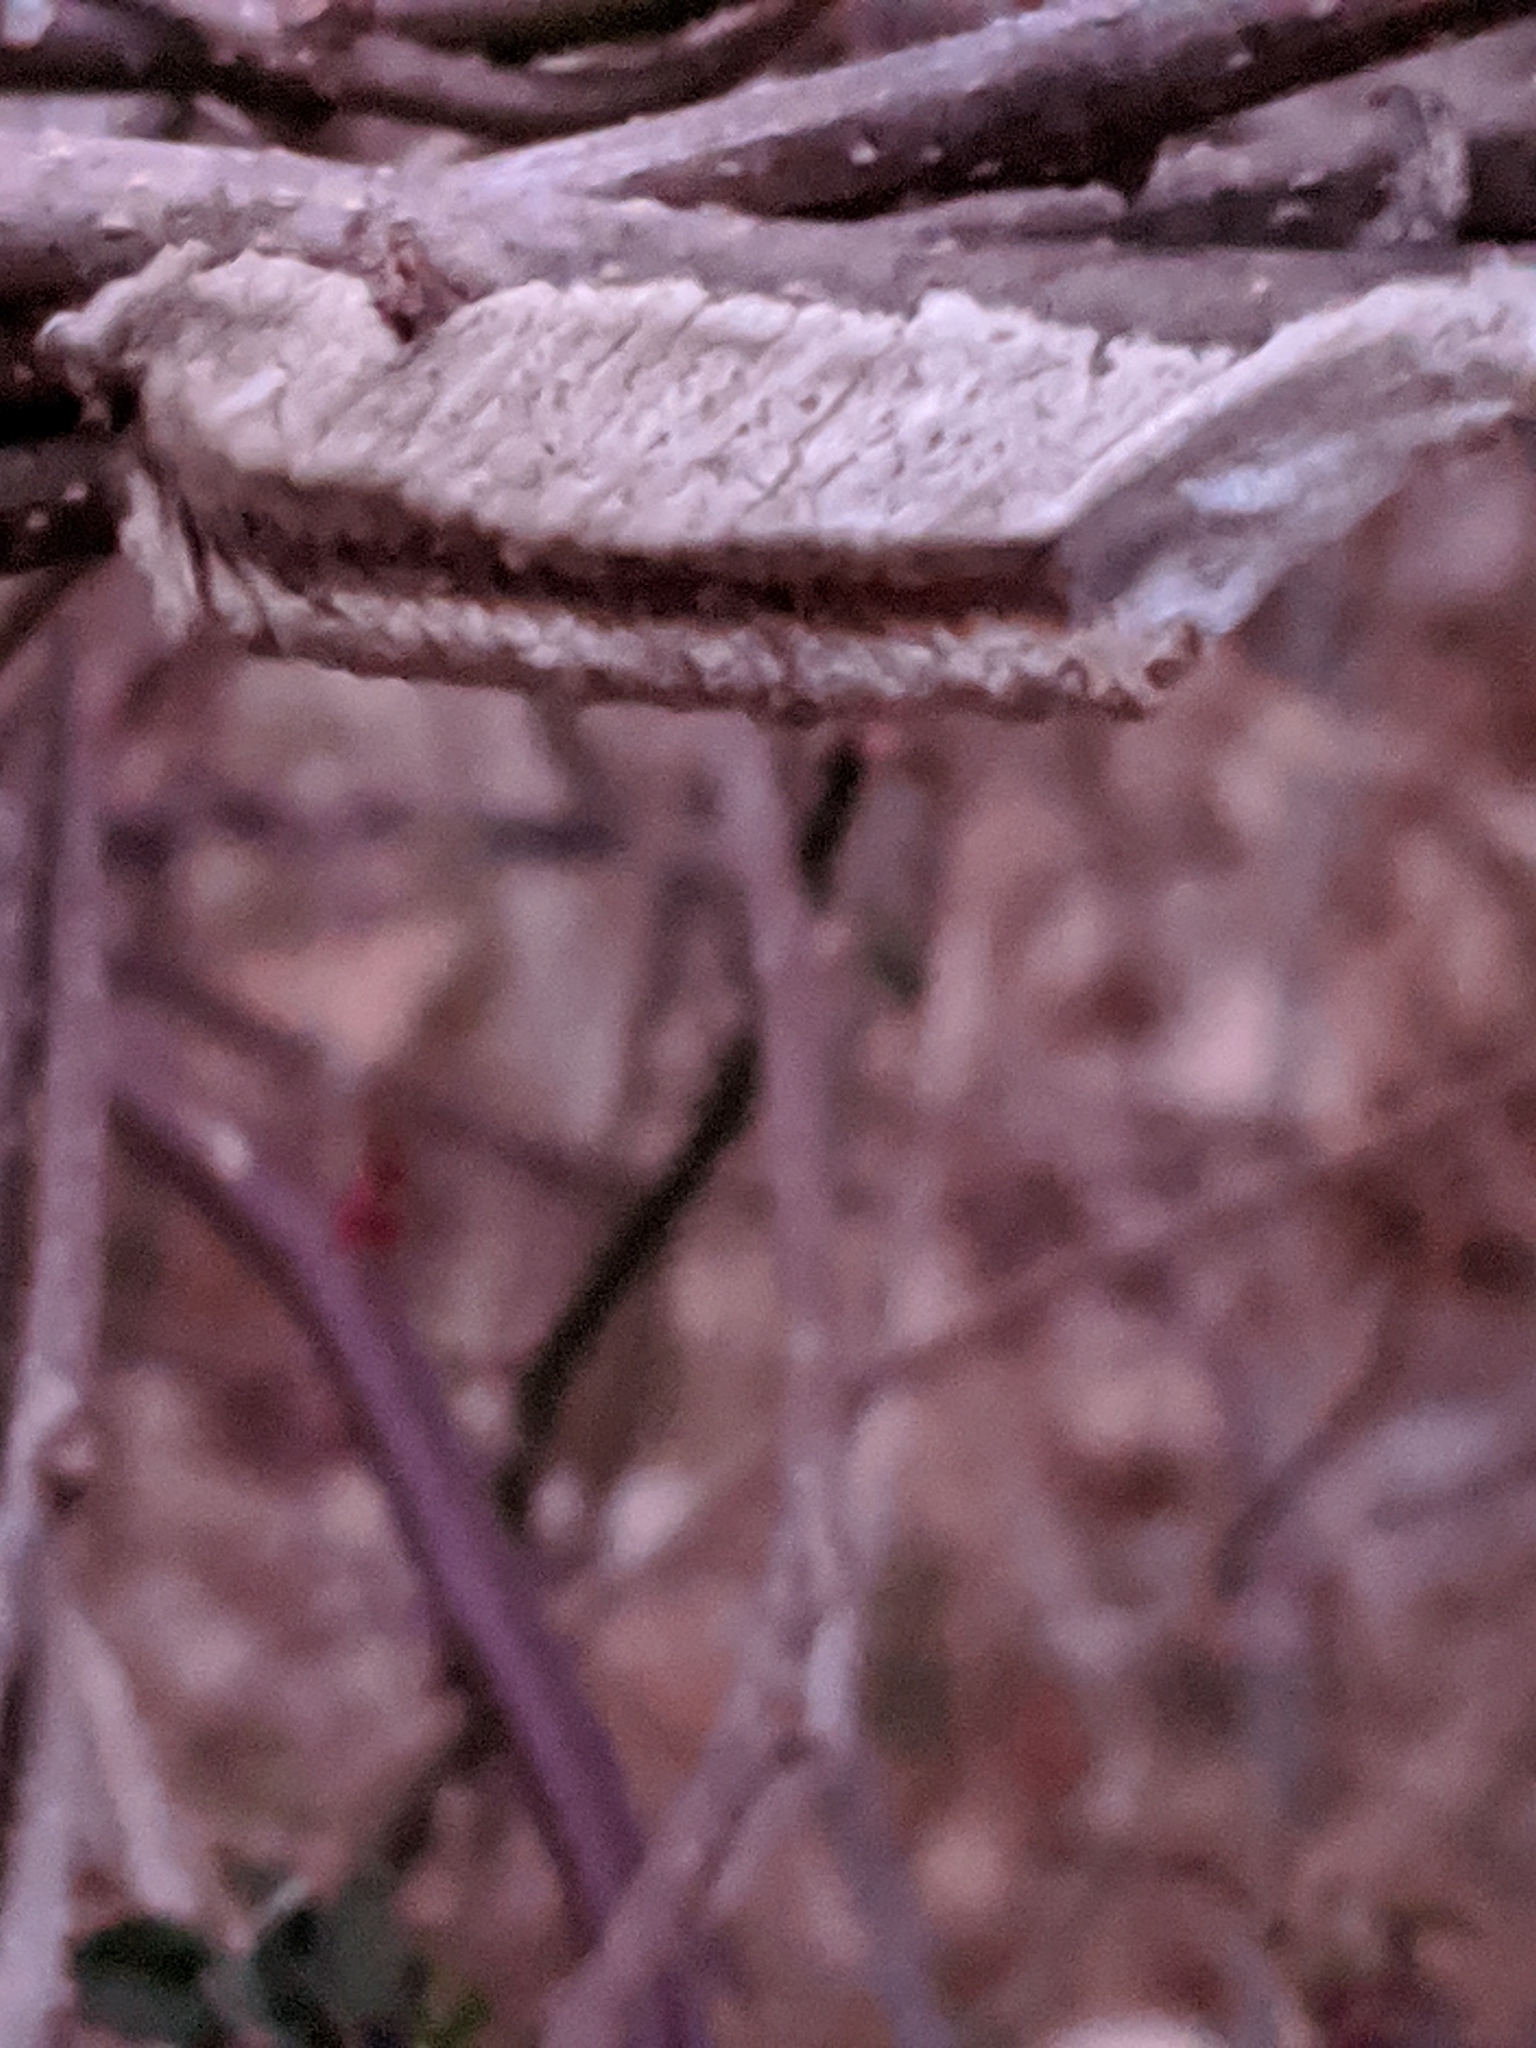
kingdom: Animalia
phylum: Arthropoda
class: Insecta
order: Mantodea
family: Mantidae
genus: Tenodera
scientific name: Tenodera angustipennis
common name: Asian mantis
